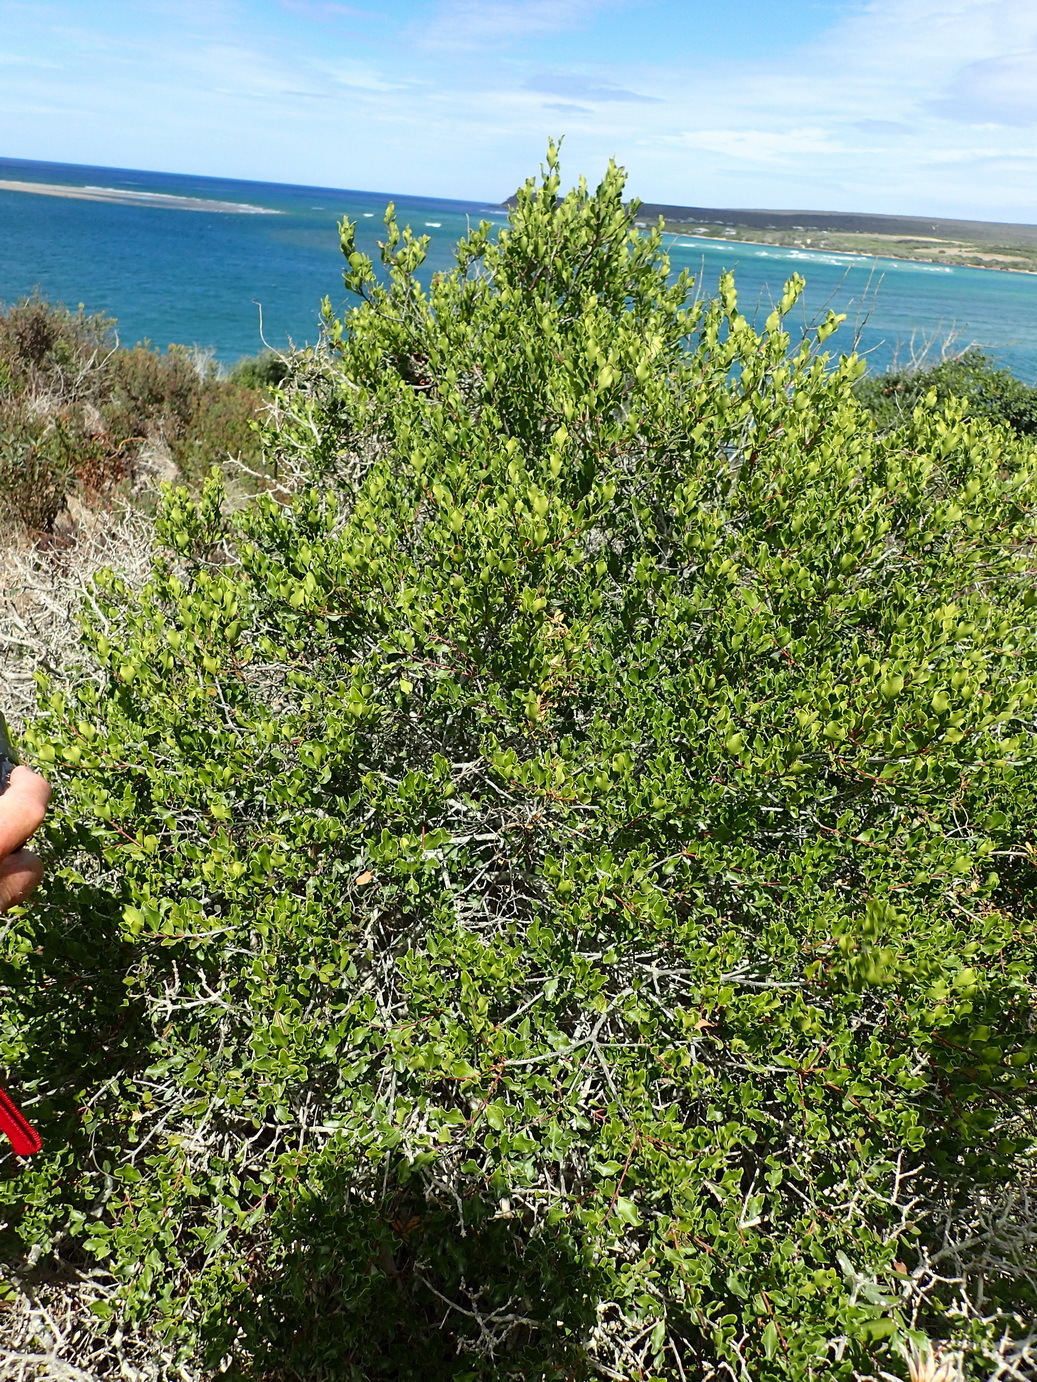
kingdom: Plantae
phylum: Tracheophyta
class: Magnoliopsida
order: Ericales
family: Ebenaceae
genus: Euclea
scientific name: Euclea undulata
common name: Small-leaved guarri
